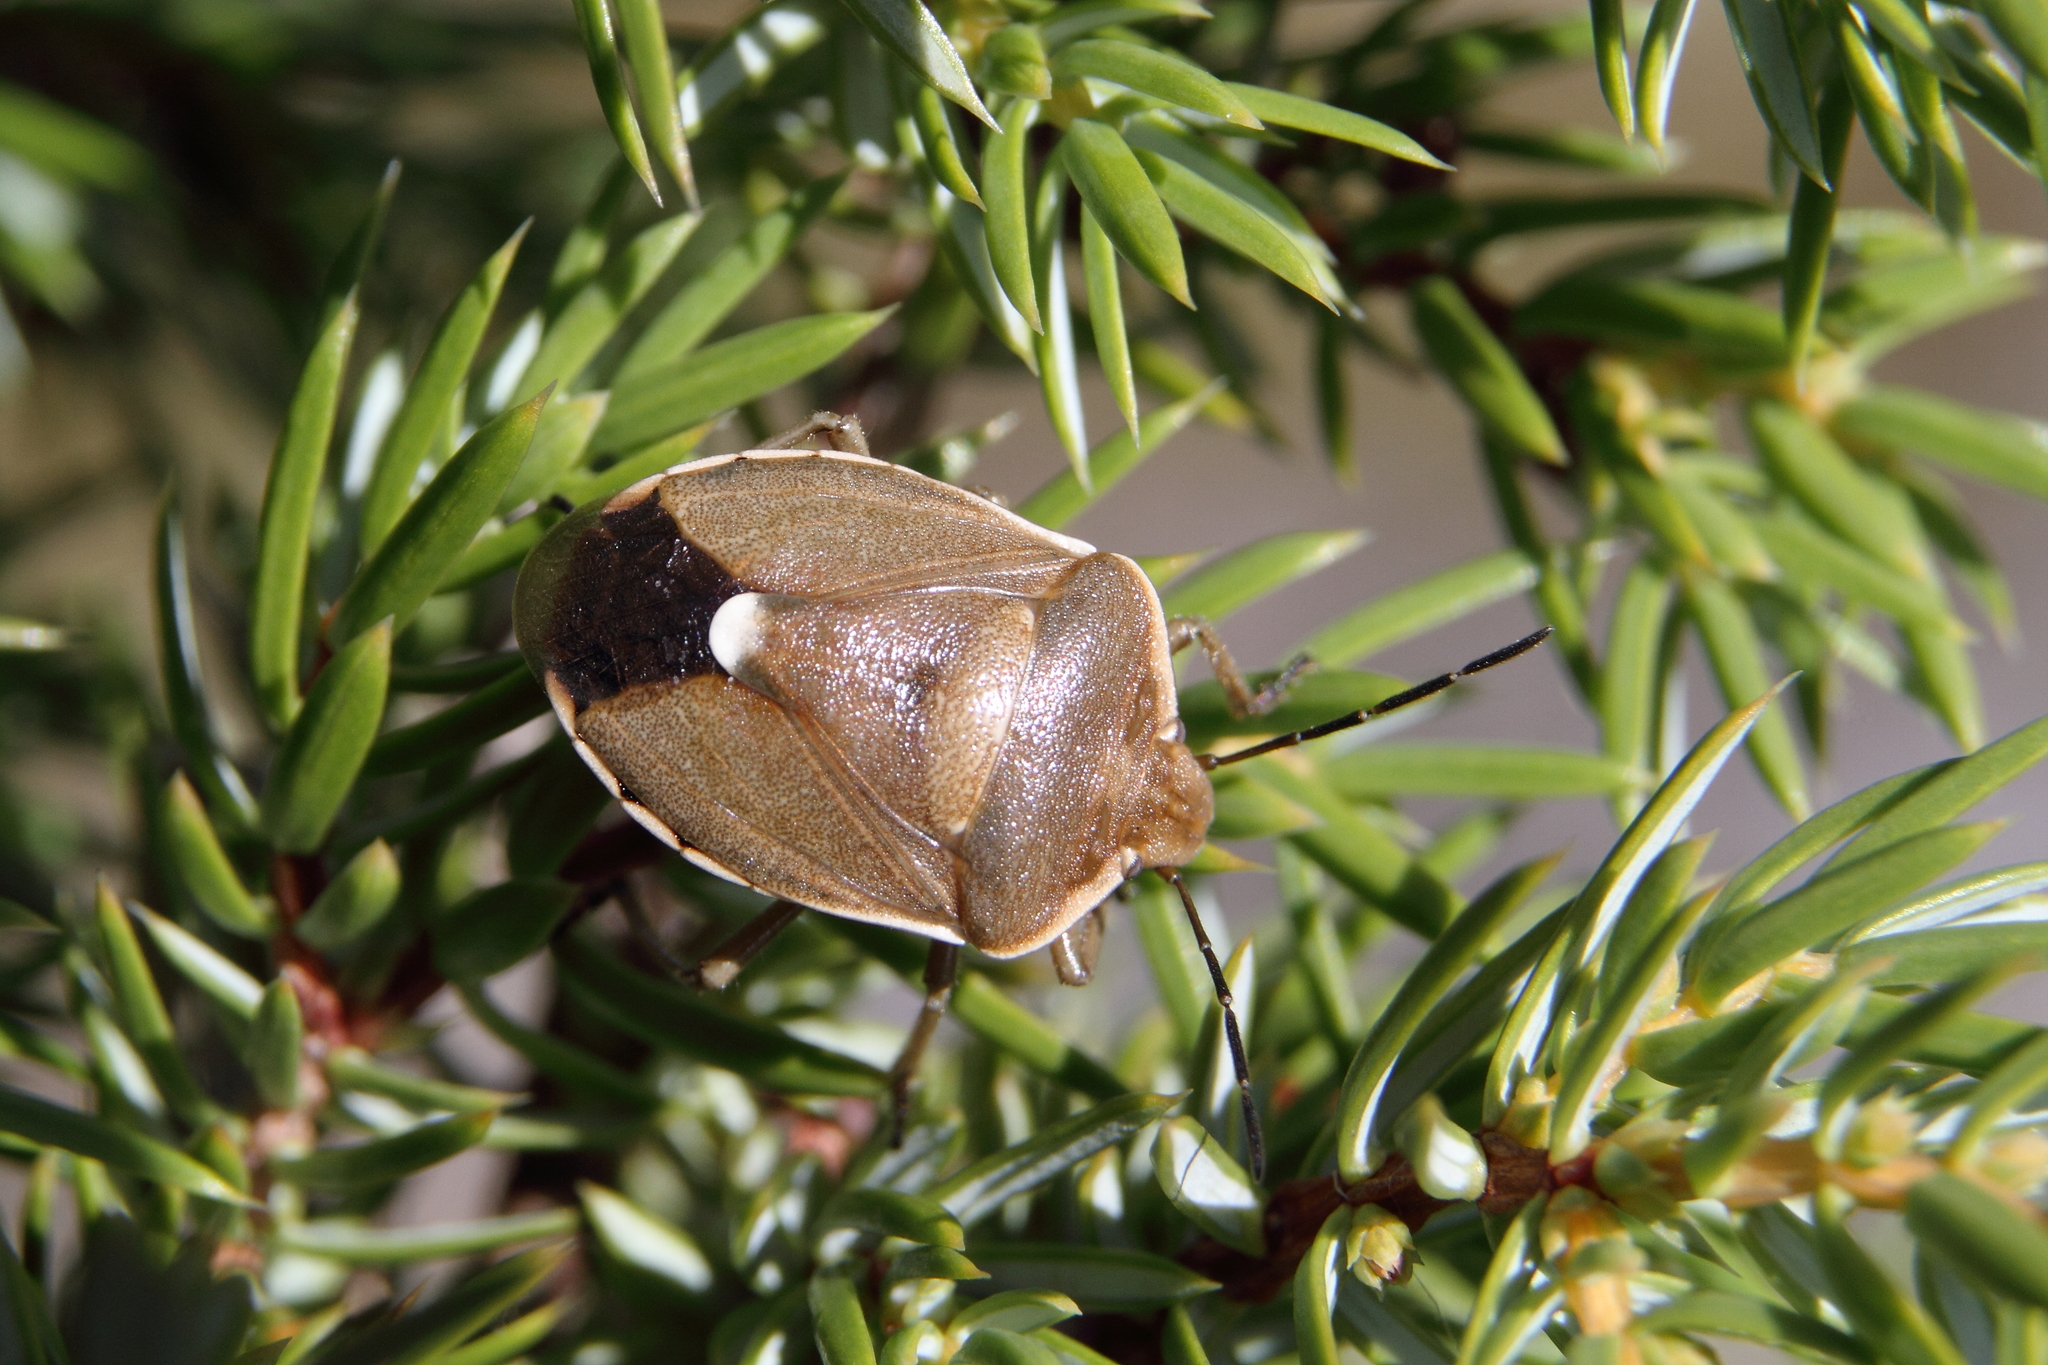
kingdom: Animalia
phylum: Arthropoda
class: Insecta
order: Hemiptera
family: Pentatomidae
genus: Chlorochroa
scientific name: Chlorochroa pinicola
